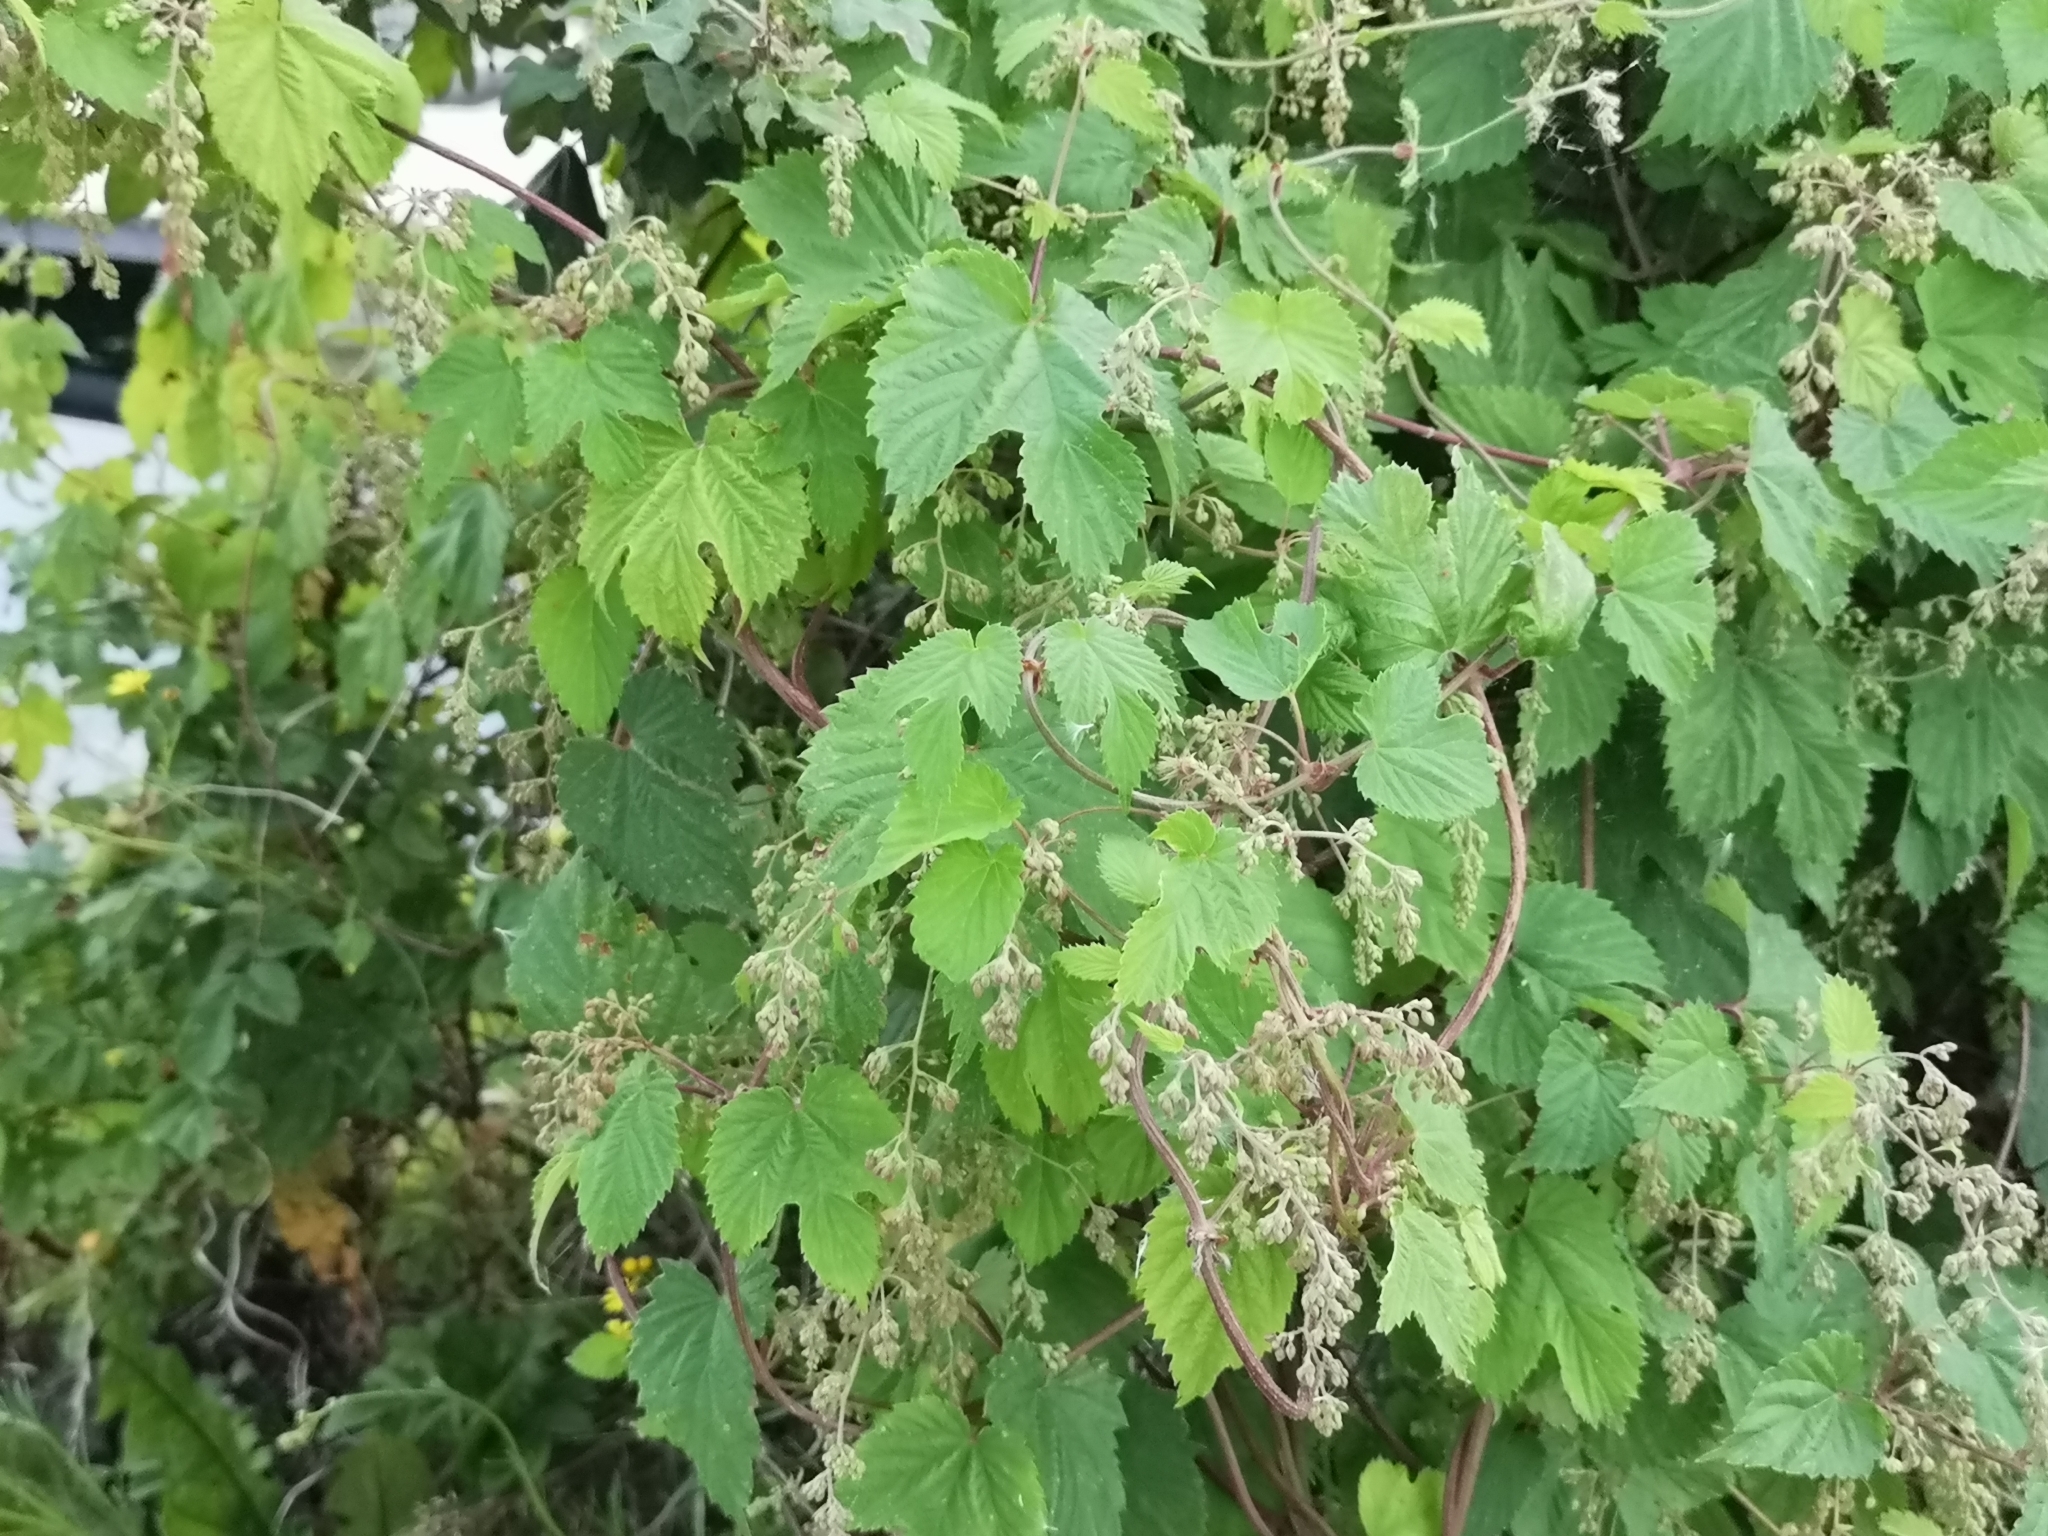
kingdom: Plantae
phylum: Tracheophyta
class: Magnoliopsida
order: Rosales
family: Cannabaceae
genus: Humulus
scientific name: Humulus lupulus
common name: Hop
